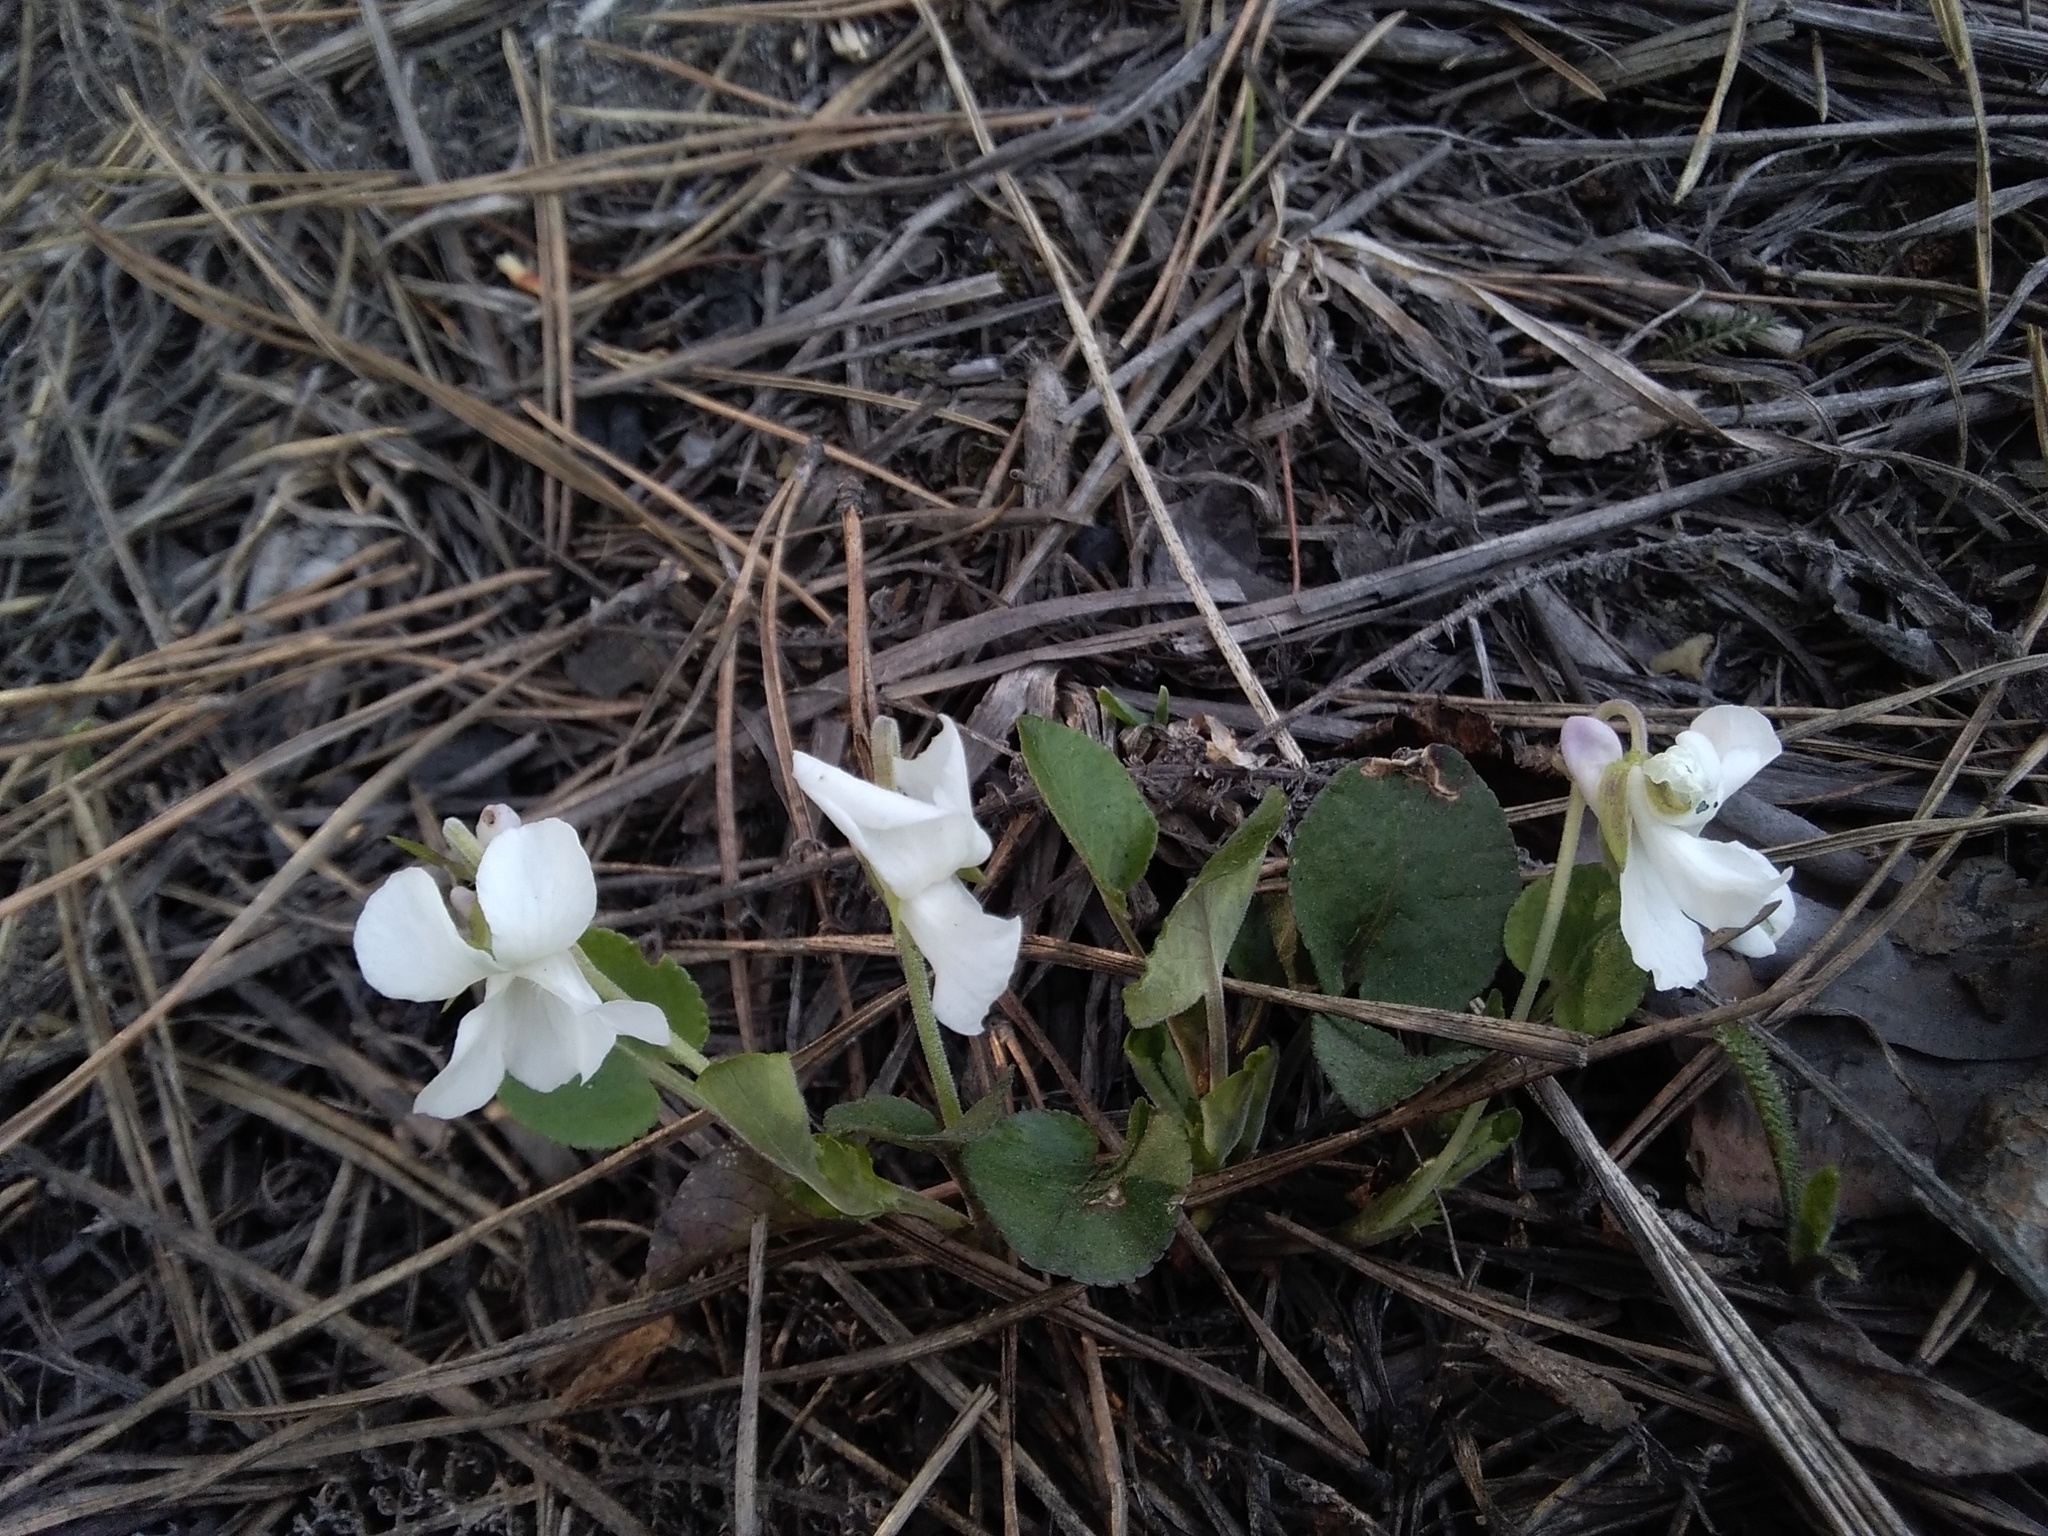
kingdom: Plantae
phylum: Tracheophyta
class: Magnoliopsida
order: Malpighiales
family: Violaceae
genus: Viola
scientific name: Viola rupestris
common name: Teesdale violet
